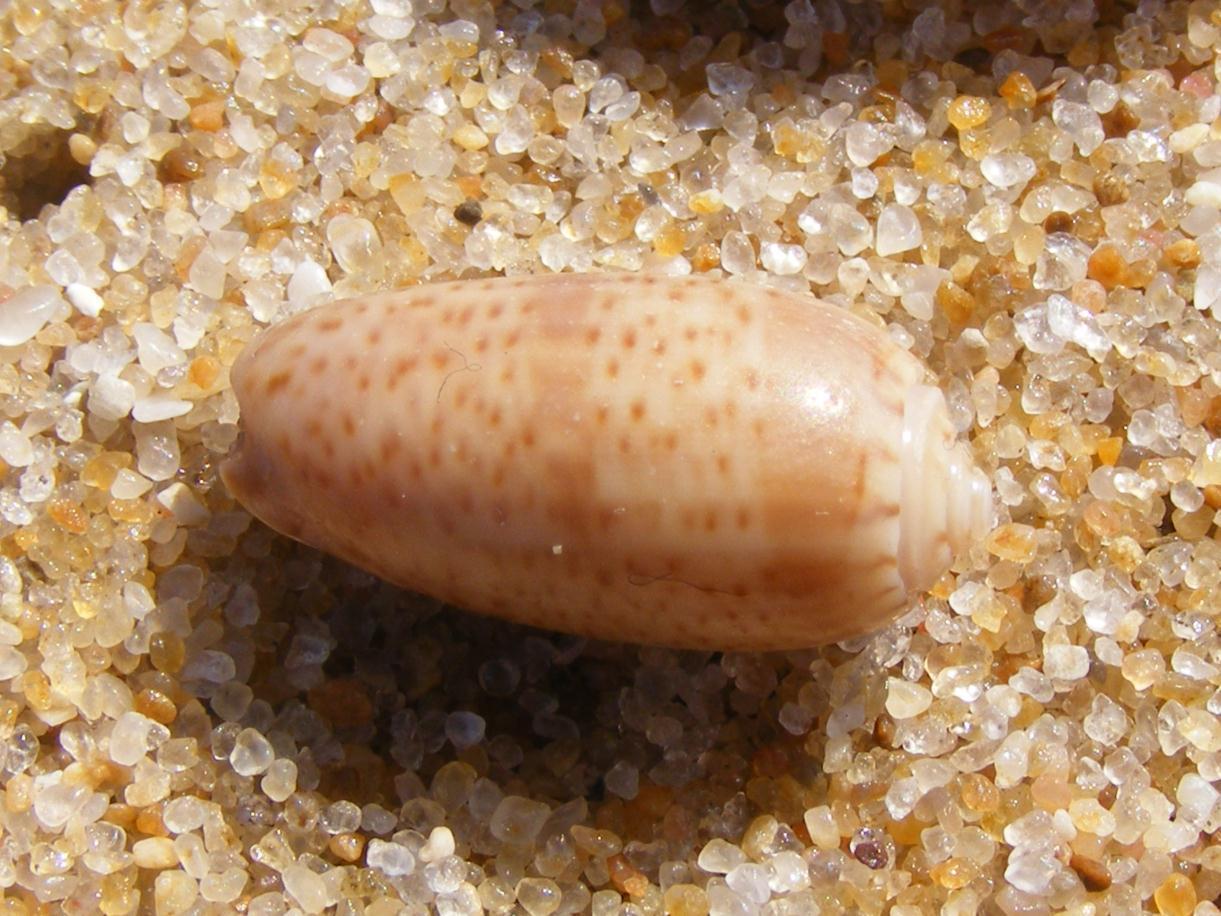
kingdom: Animalia
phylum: Mollusca
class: Gastropoda
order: Neogastropoda
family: Olividae
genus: Oliva
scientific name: Oliva caroliniana
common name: Carolinian olive shell
